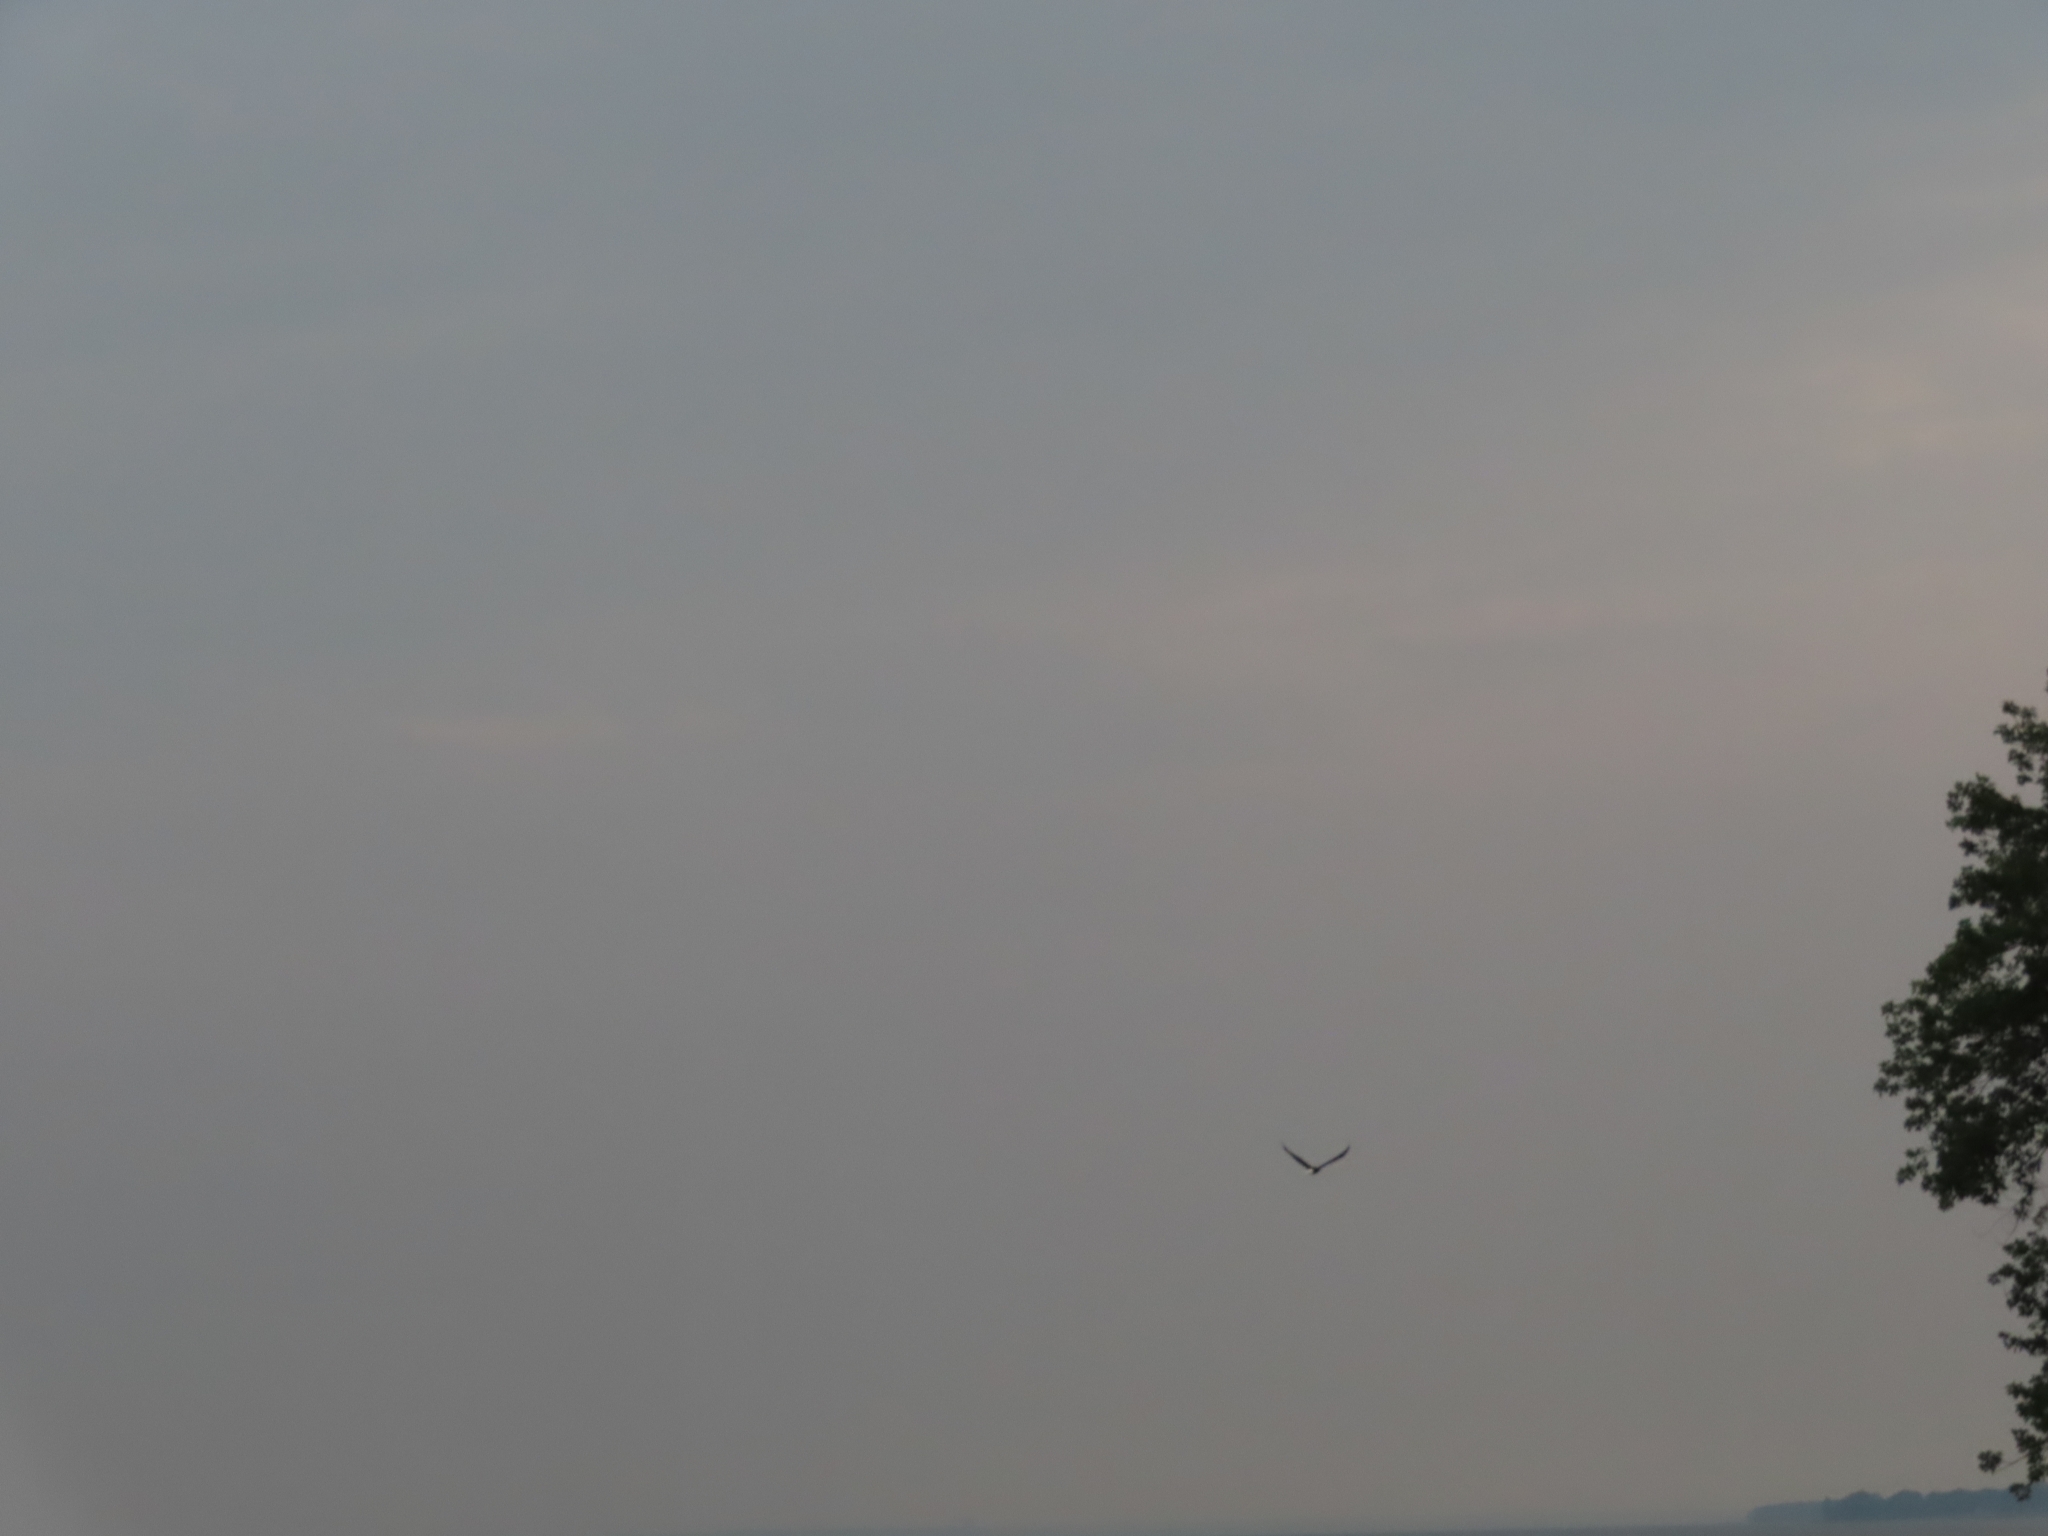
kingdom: Animalia
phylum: Chordata
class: Aves
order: Accipitriformes
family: Accipitridae
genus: Haliaeetus
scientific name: Haliaeetus leucocephalus
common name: Bald eagle
